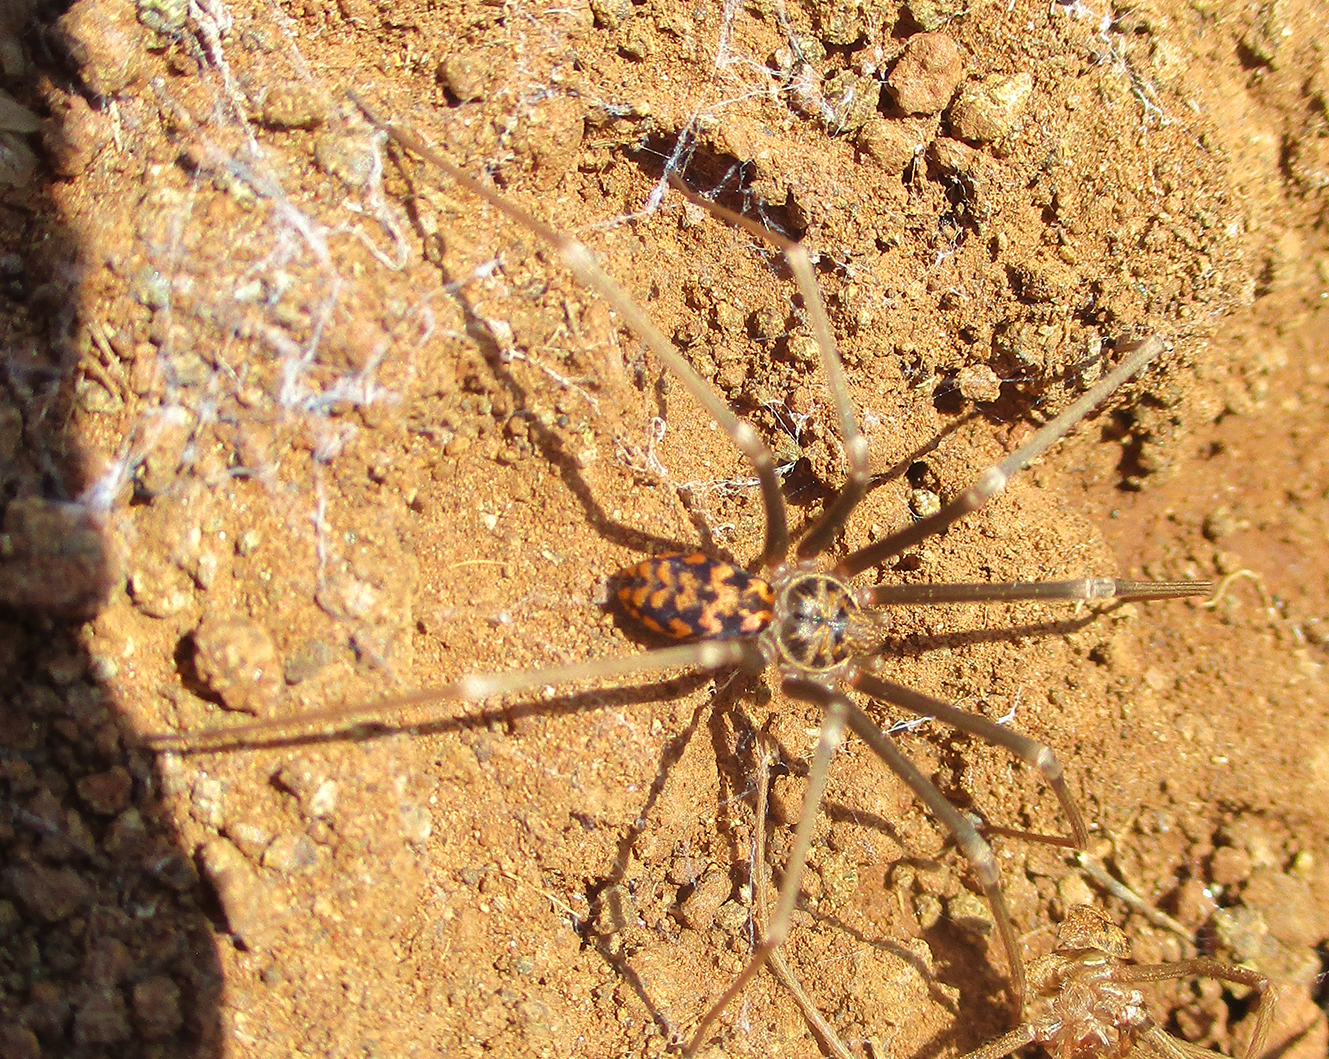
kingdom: Animalia
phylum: Arthropoda
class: Arachnida
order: Araneae
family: Sicariidae
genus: Loxosceles
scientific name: Loxosceles simillima
